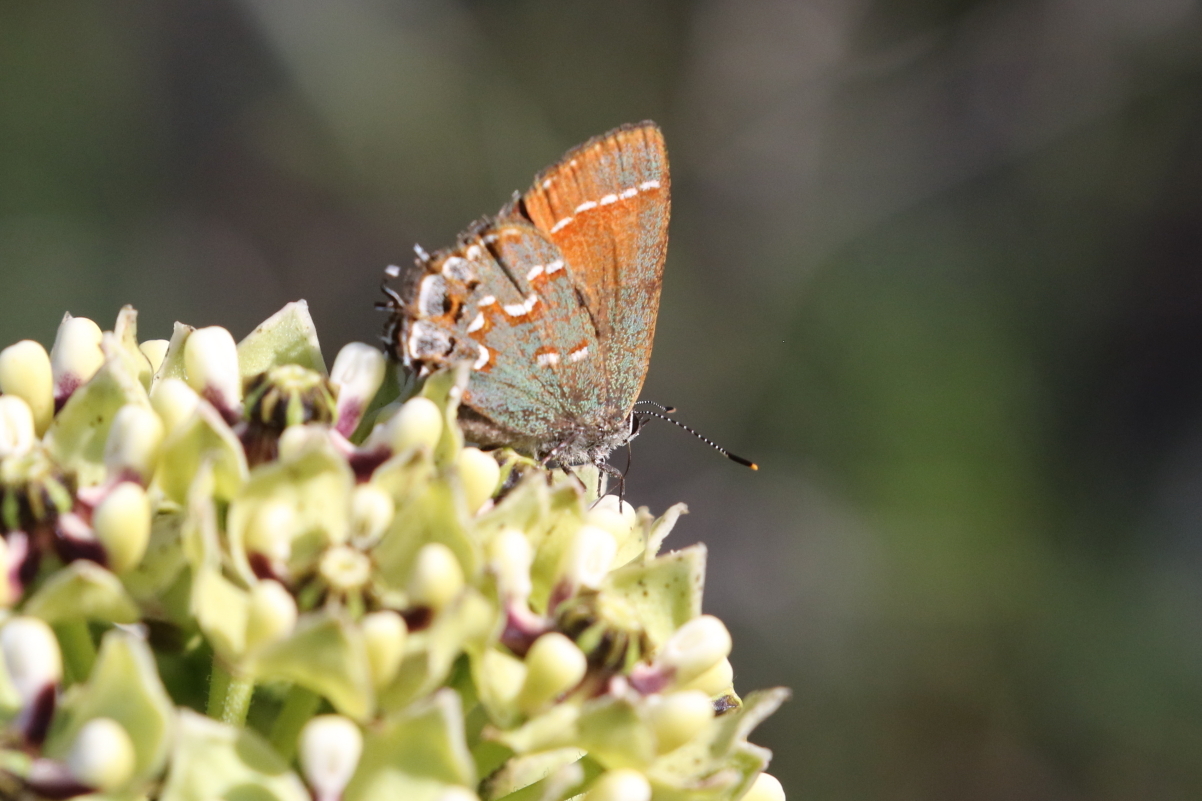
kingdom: Animalia
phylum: Arthropoda
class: Insecta
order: Lepidoptera
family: Lycaenidae
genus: Mitoura
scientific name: Mitoura gryneus
